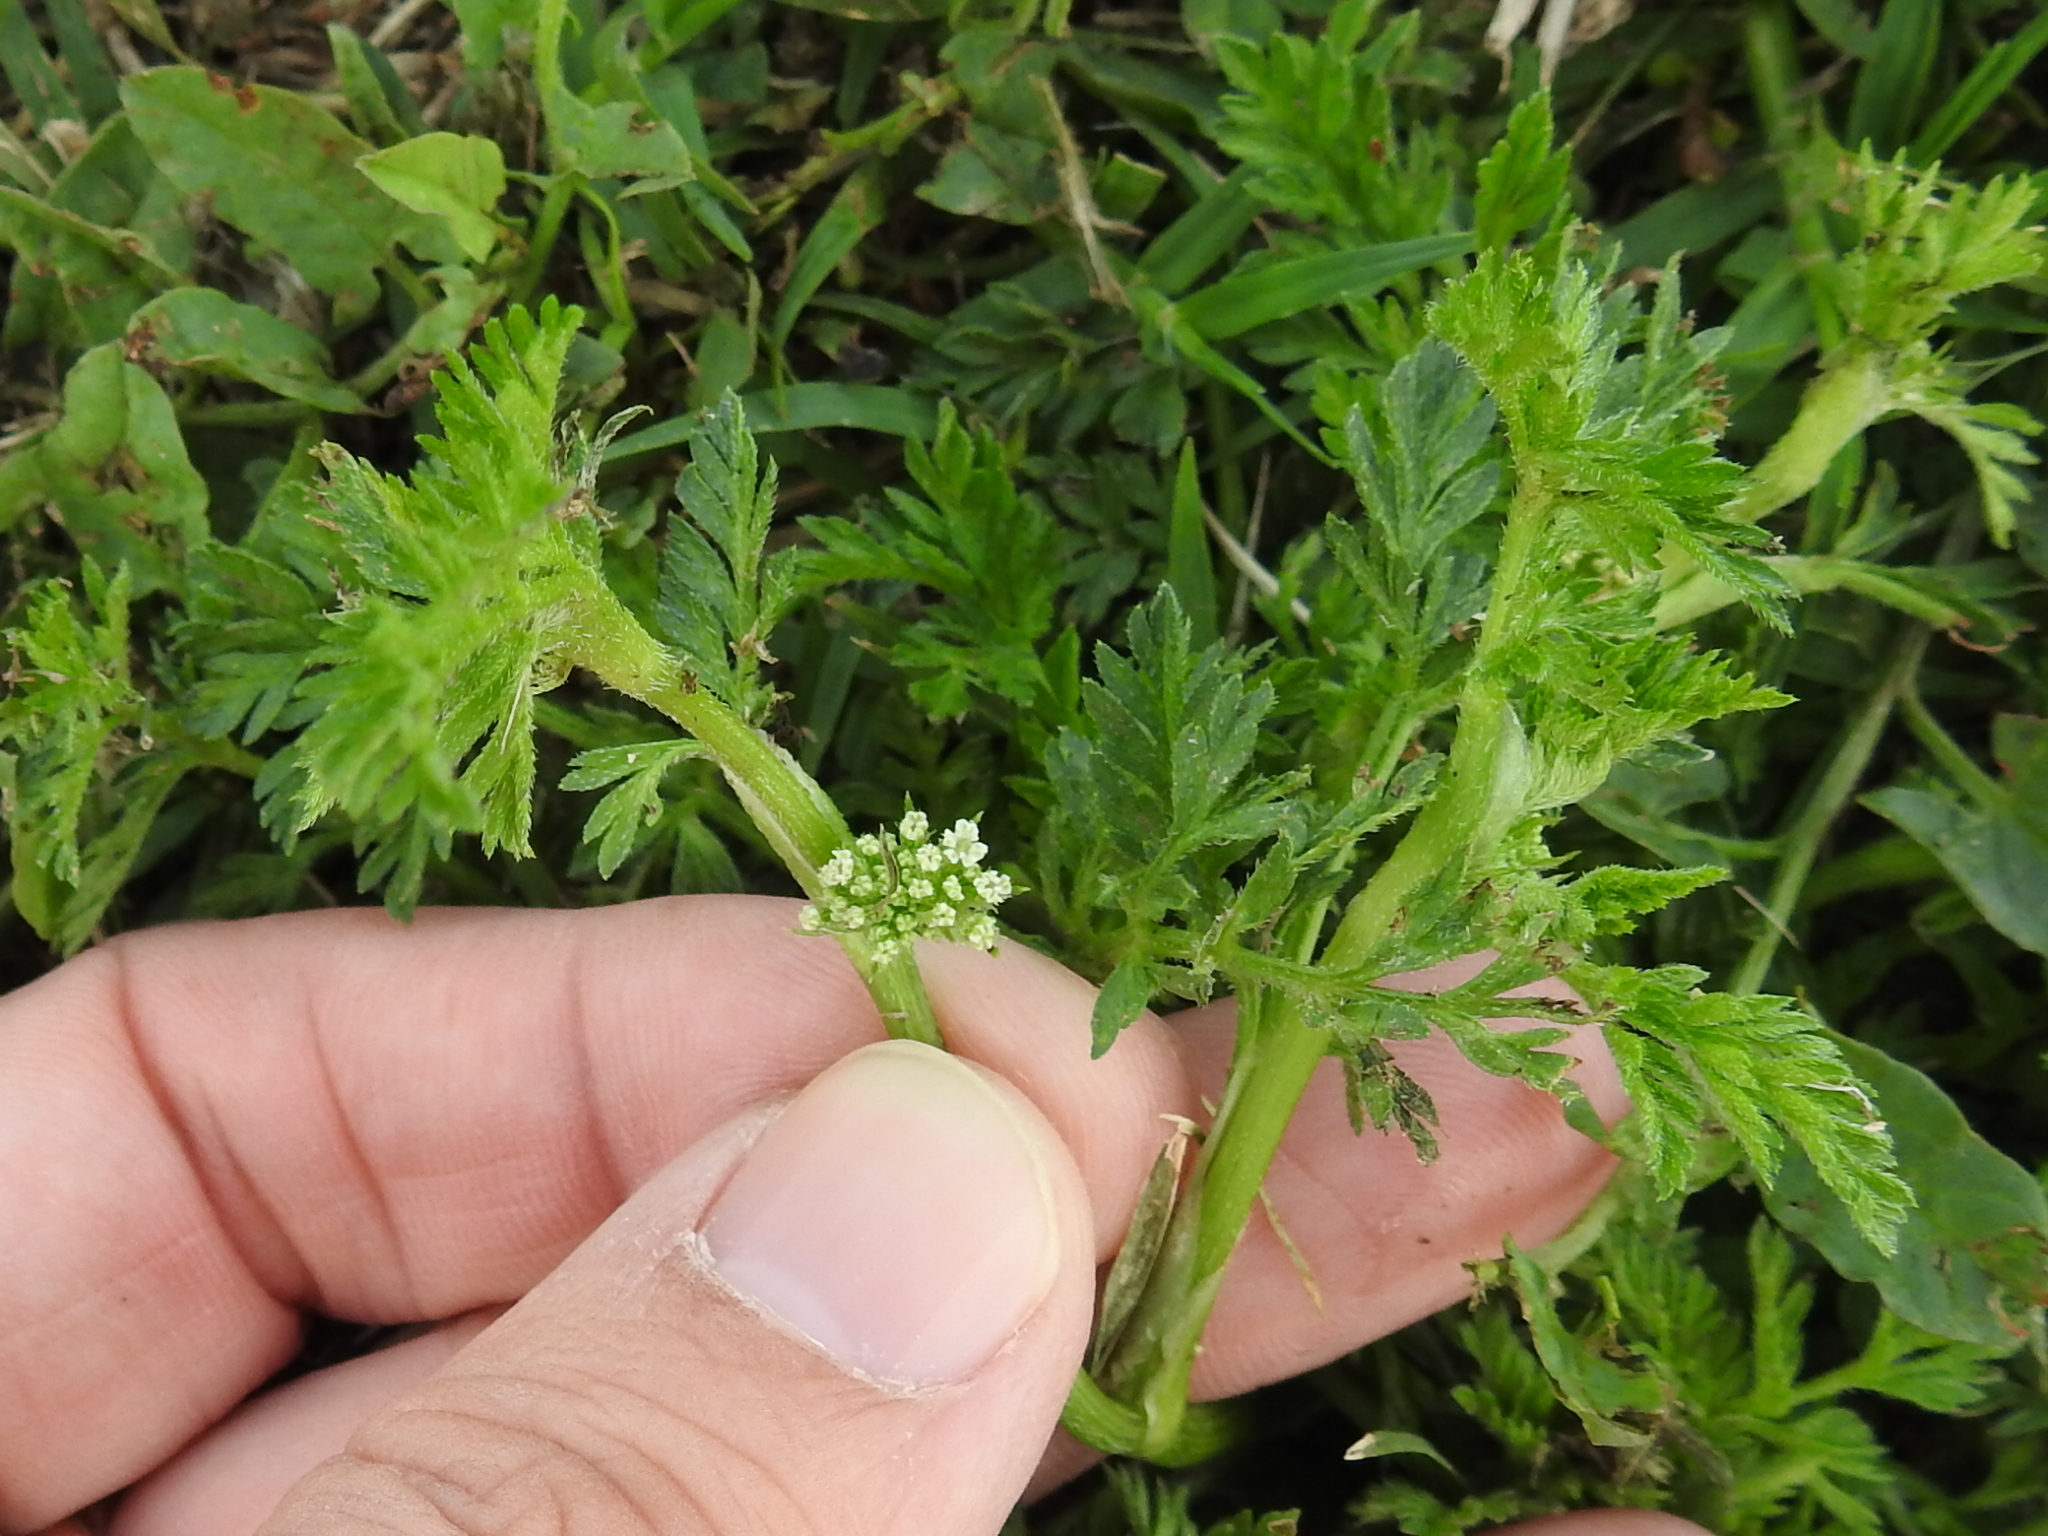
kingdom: Plantae
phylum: Tracheophyta
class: Magnoliopsida
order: Apiales
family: Apiaceae
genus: Torilis
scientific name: Torilis nodosa
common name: Knotted hedge-parsley
